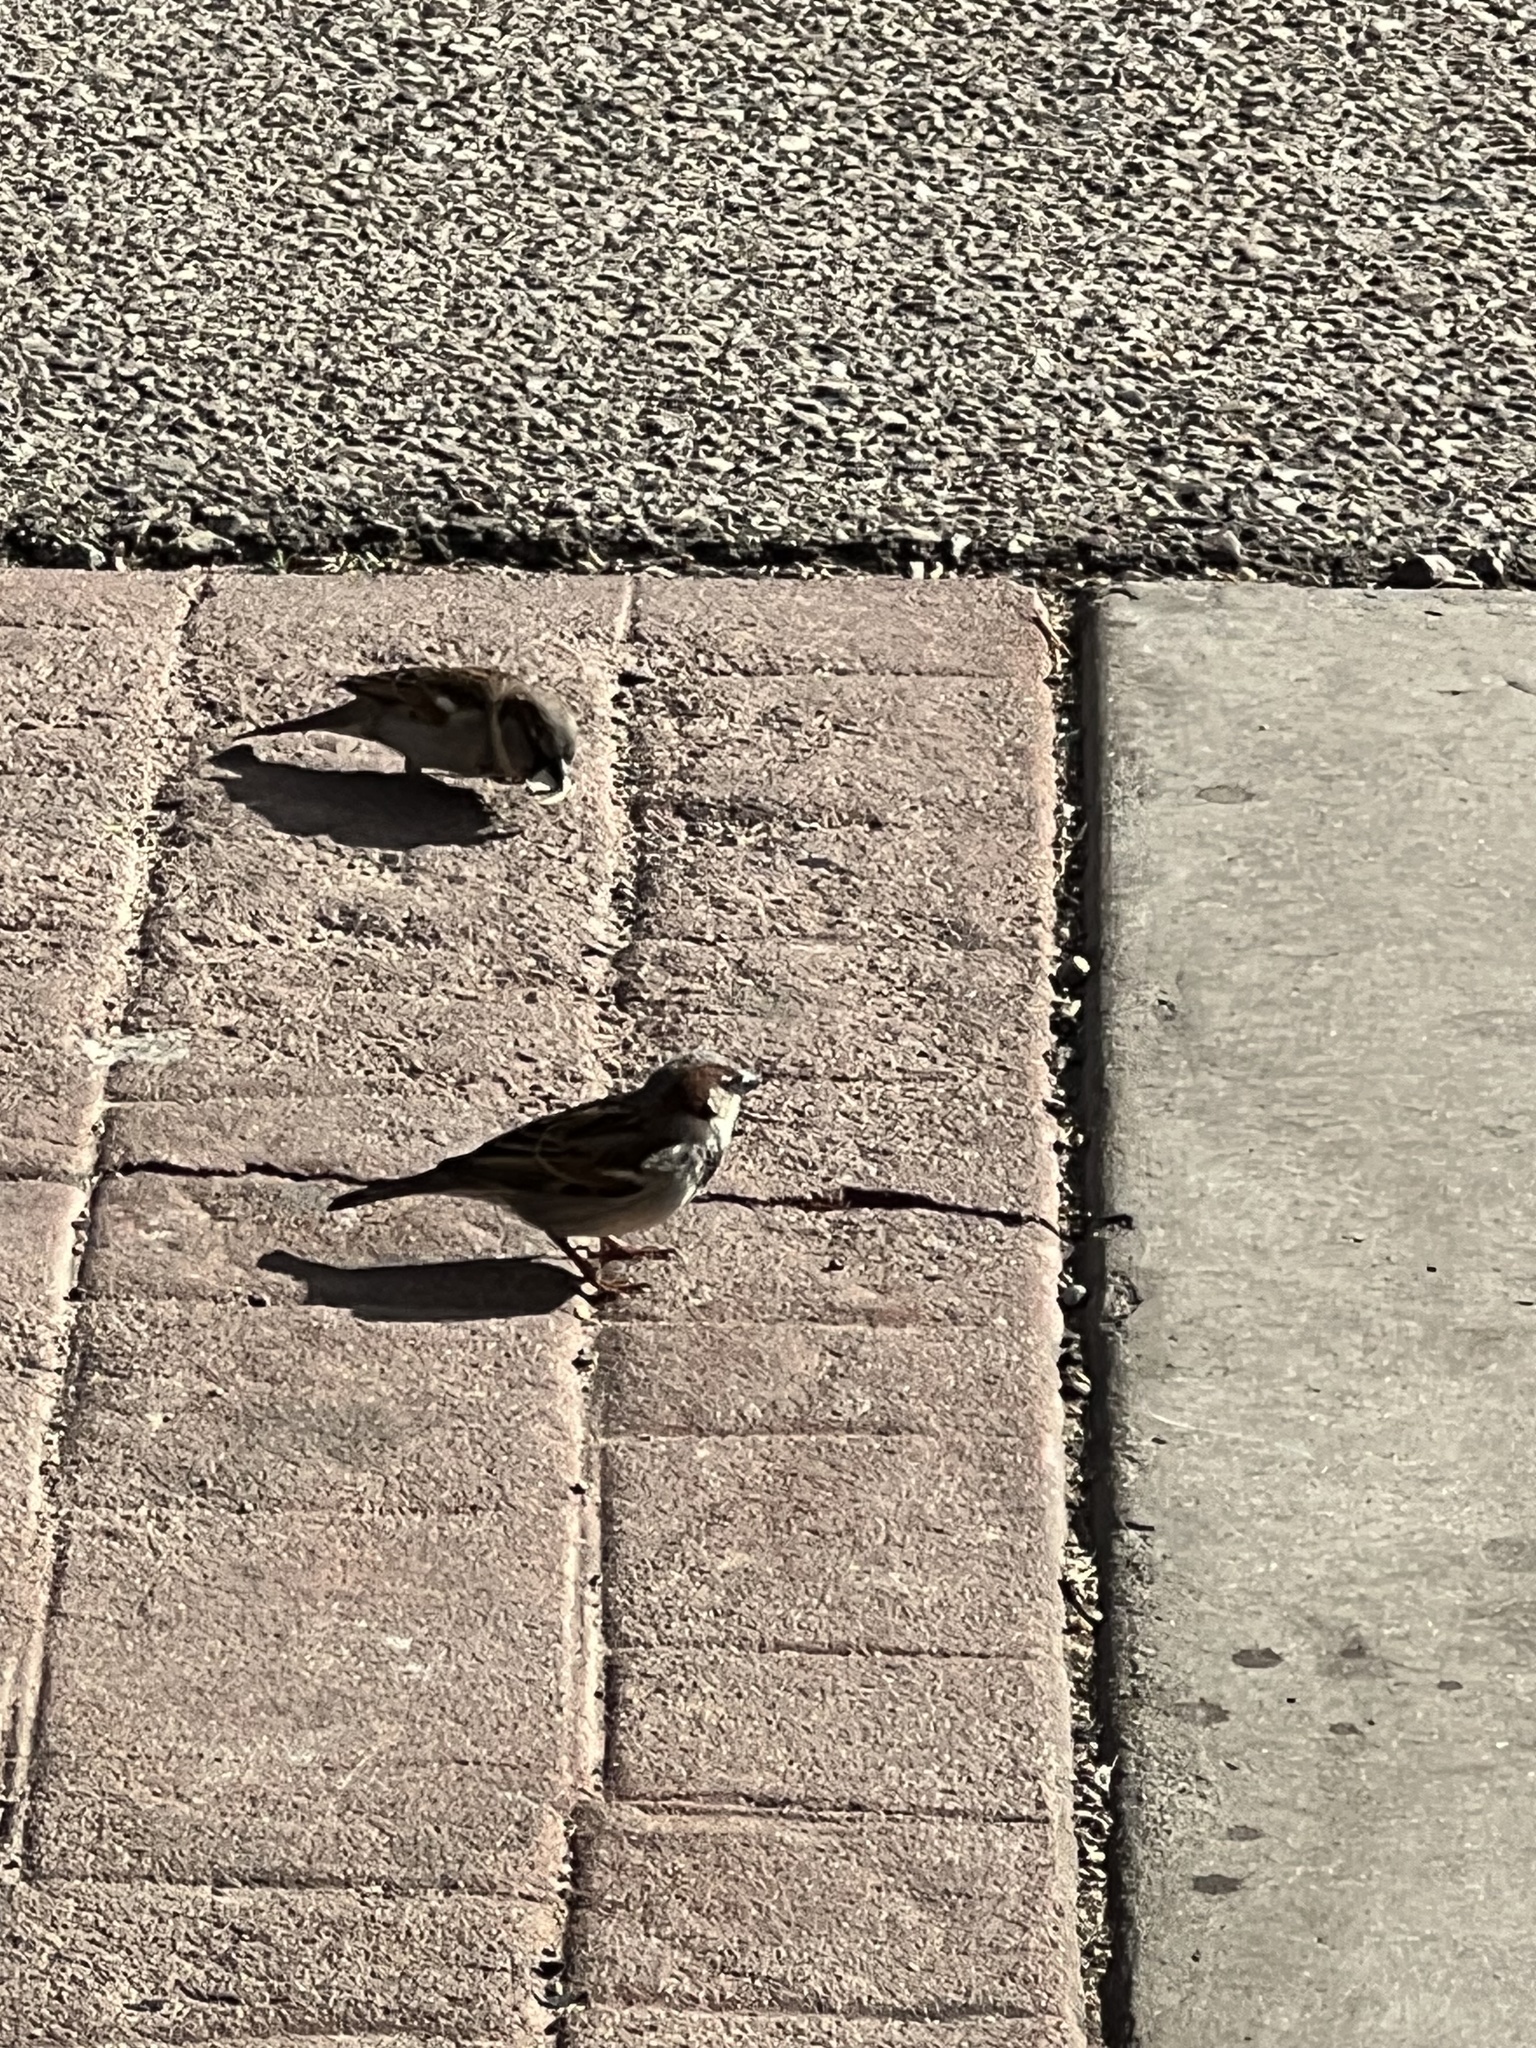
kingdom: Animalia
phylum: Chordata
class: Aves
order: Passeriformes
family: Passeridae
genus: Passer
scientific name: Passer domesticus
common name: House sparrow
